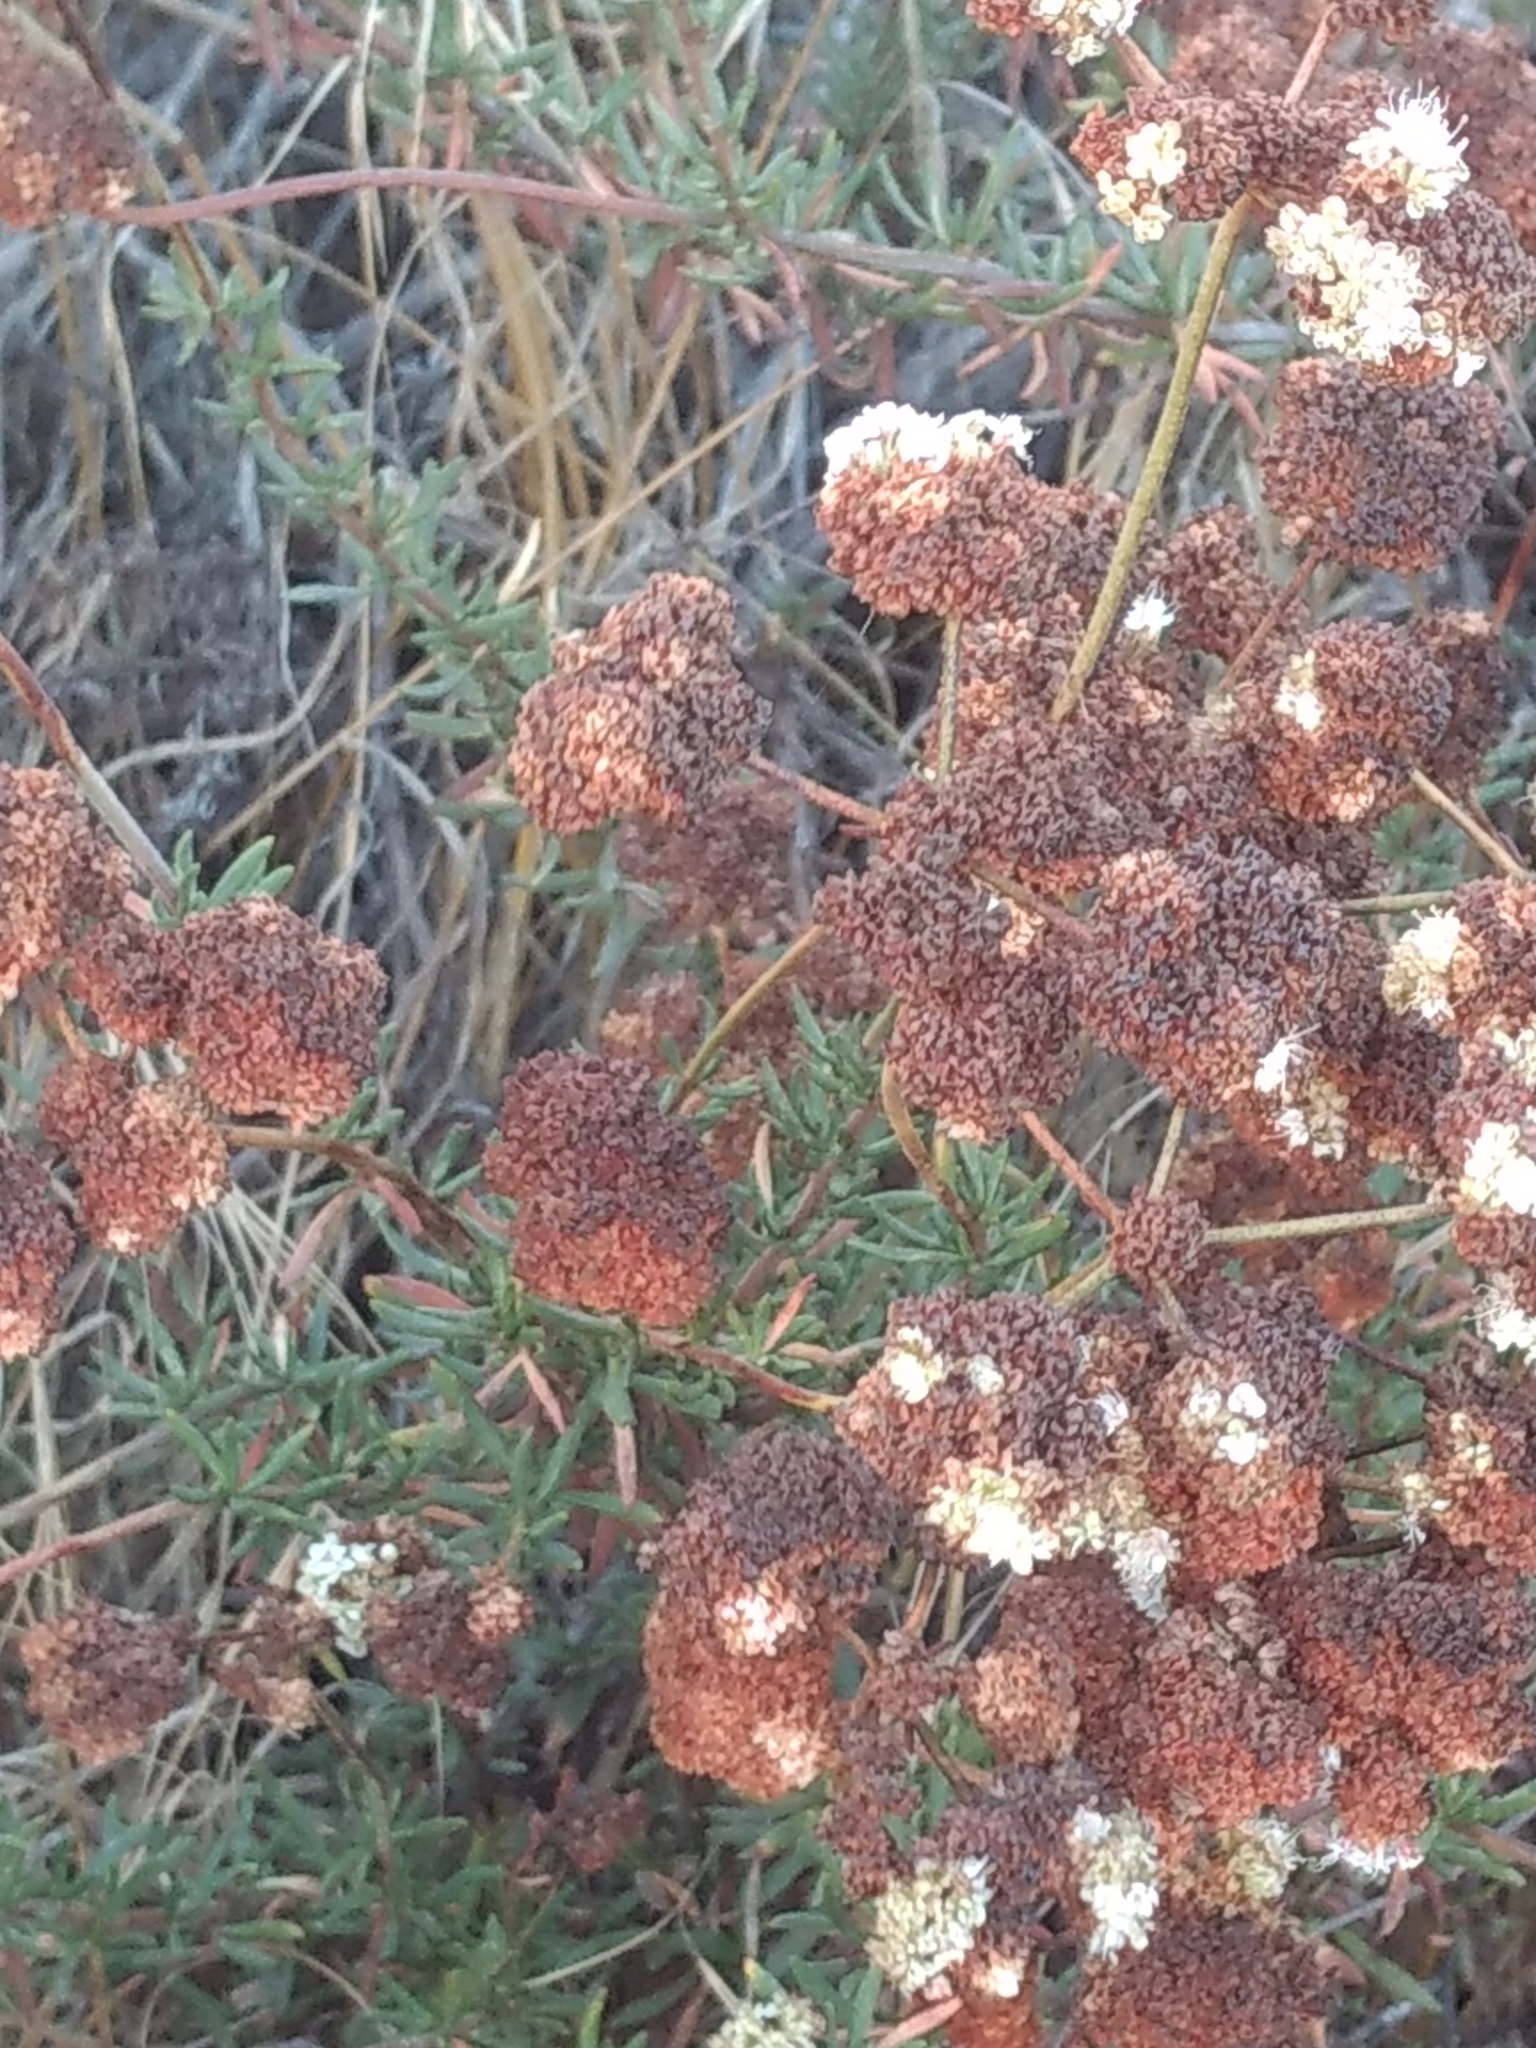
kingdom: Plantae
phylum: Tracheophyta
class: Magnoliopsida
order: Caryophyllales
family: Polygonaceae
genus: Eriogonum
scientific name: Eriogonum fasciculatum
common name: California wild buckwheat
